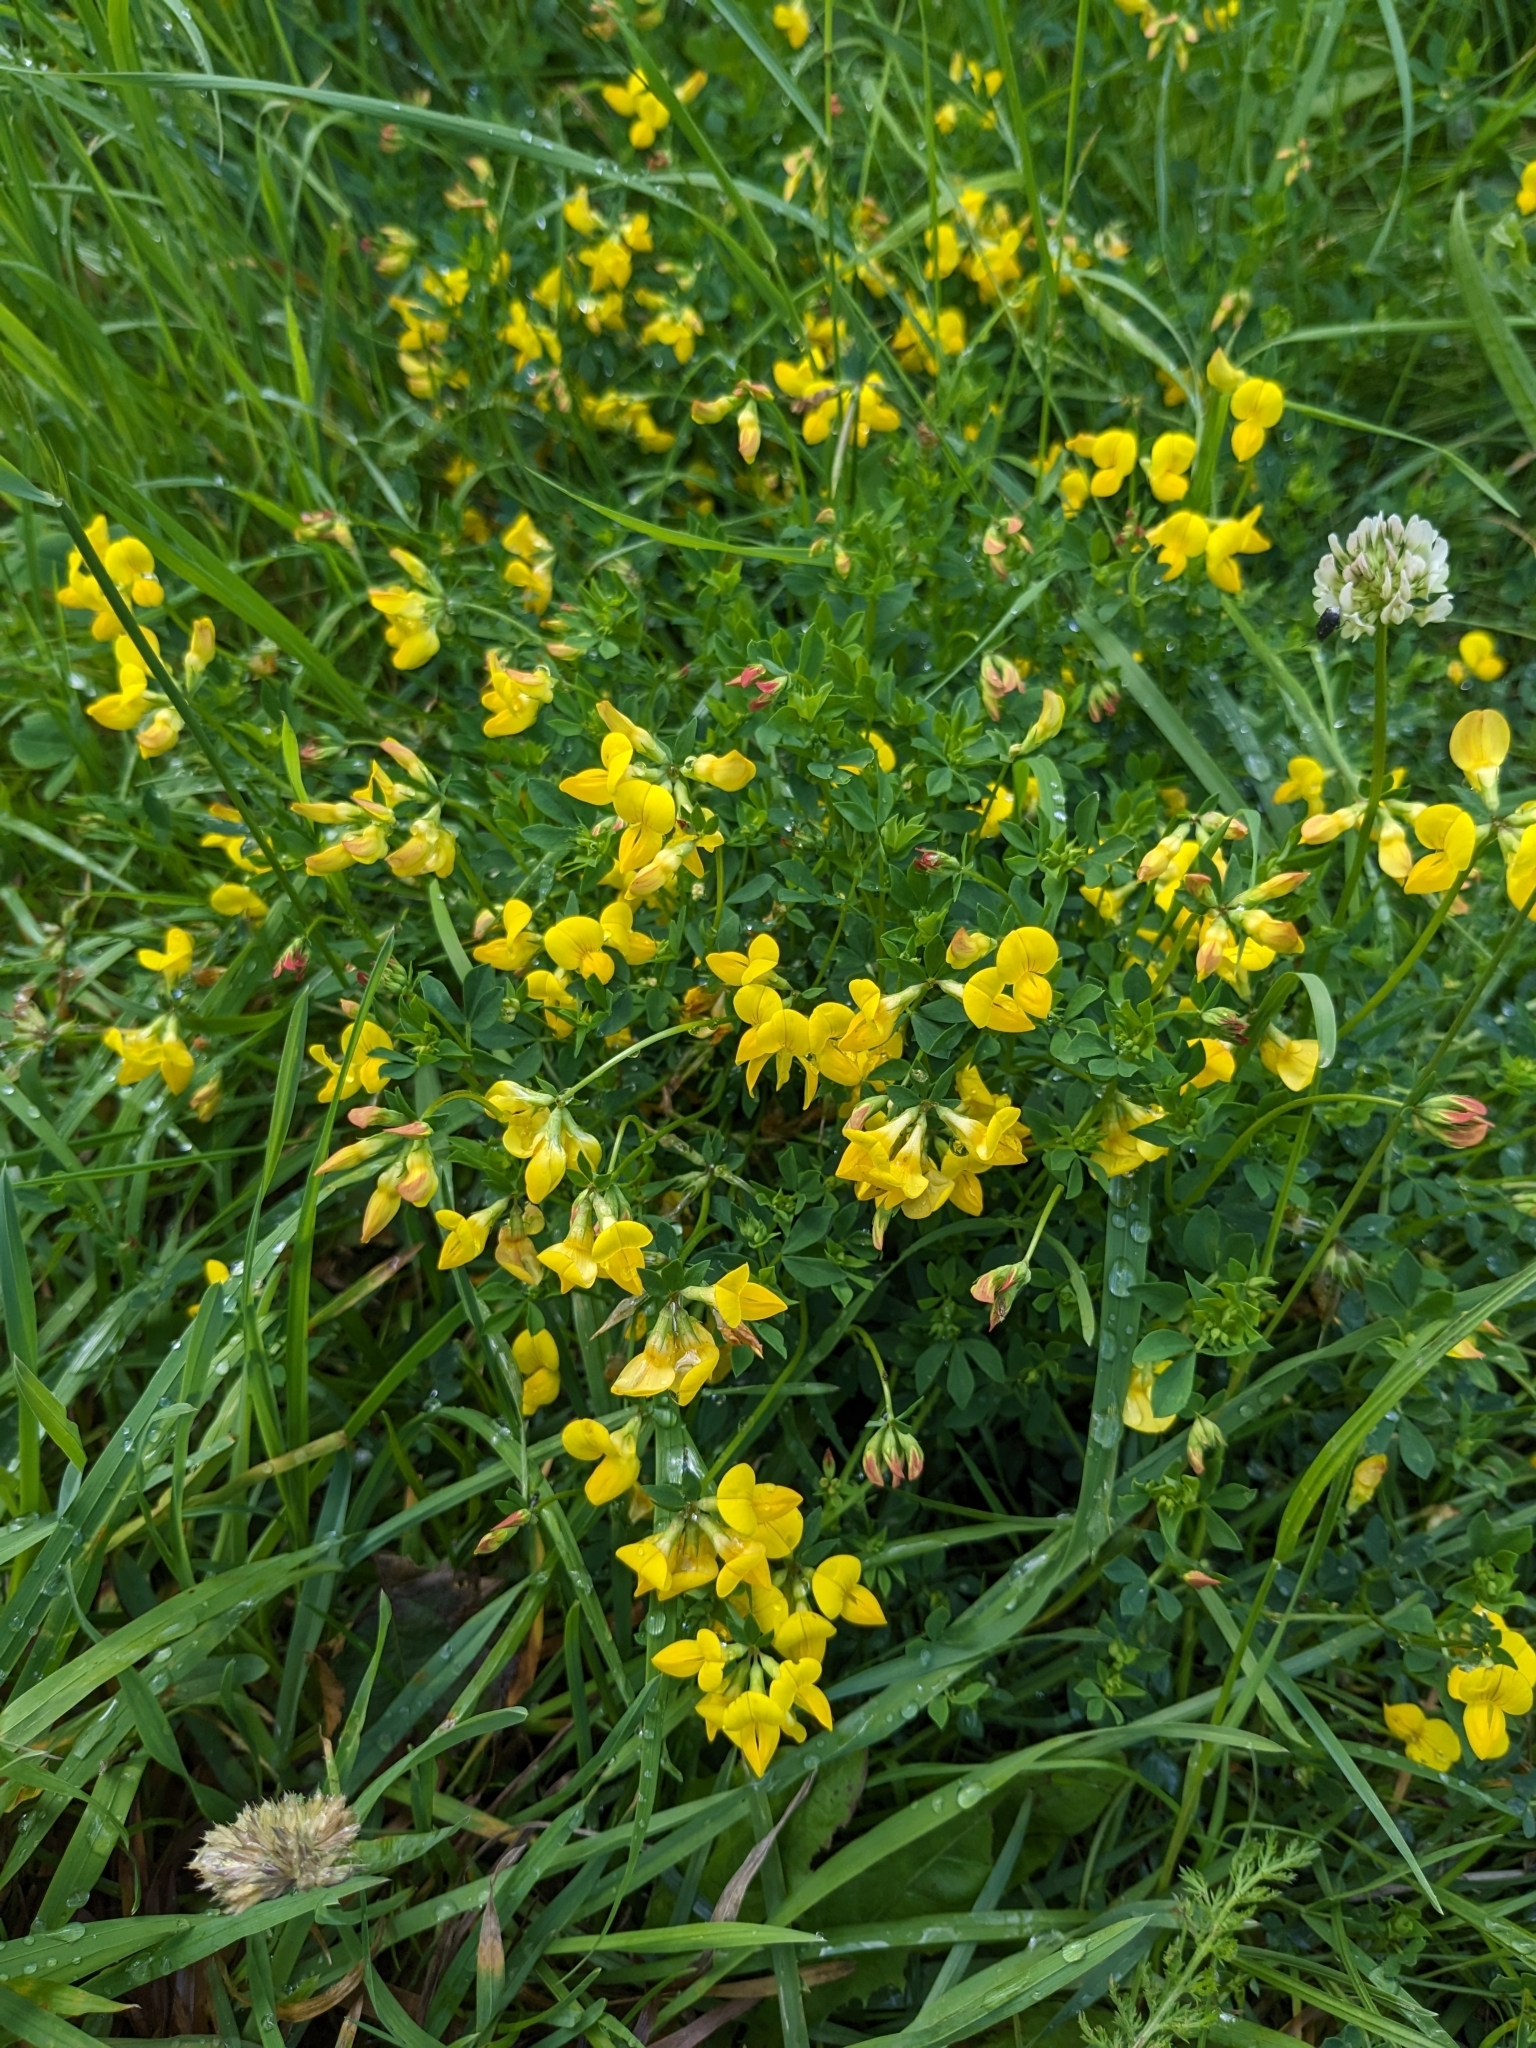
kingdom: Plantae
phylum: Tracheophyta
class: Magnoliopsida
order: Fabales
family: Fabaceae
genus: Lotus
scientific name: Lotus corniculatus
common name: Common bird's-foot-trefoil
